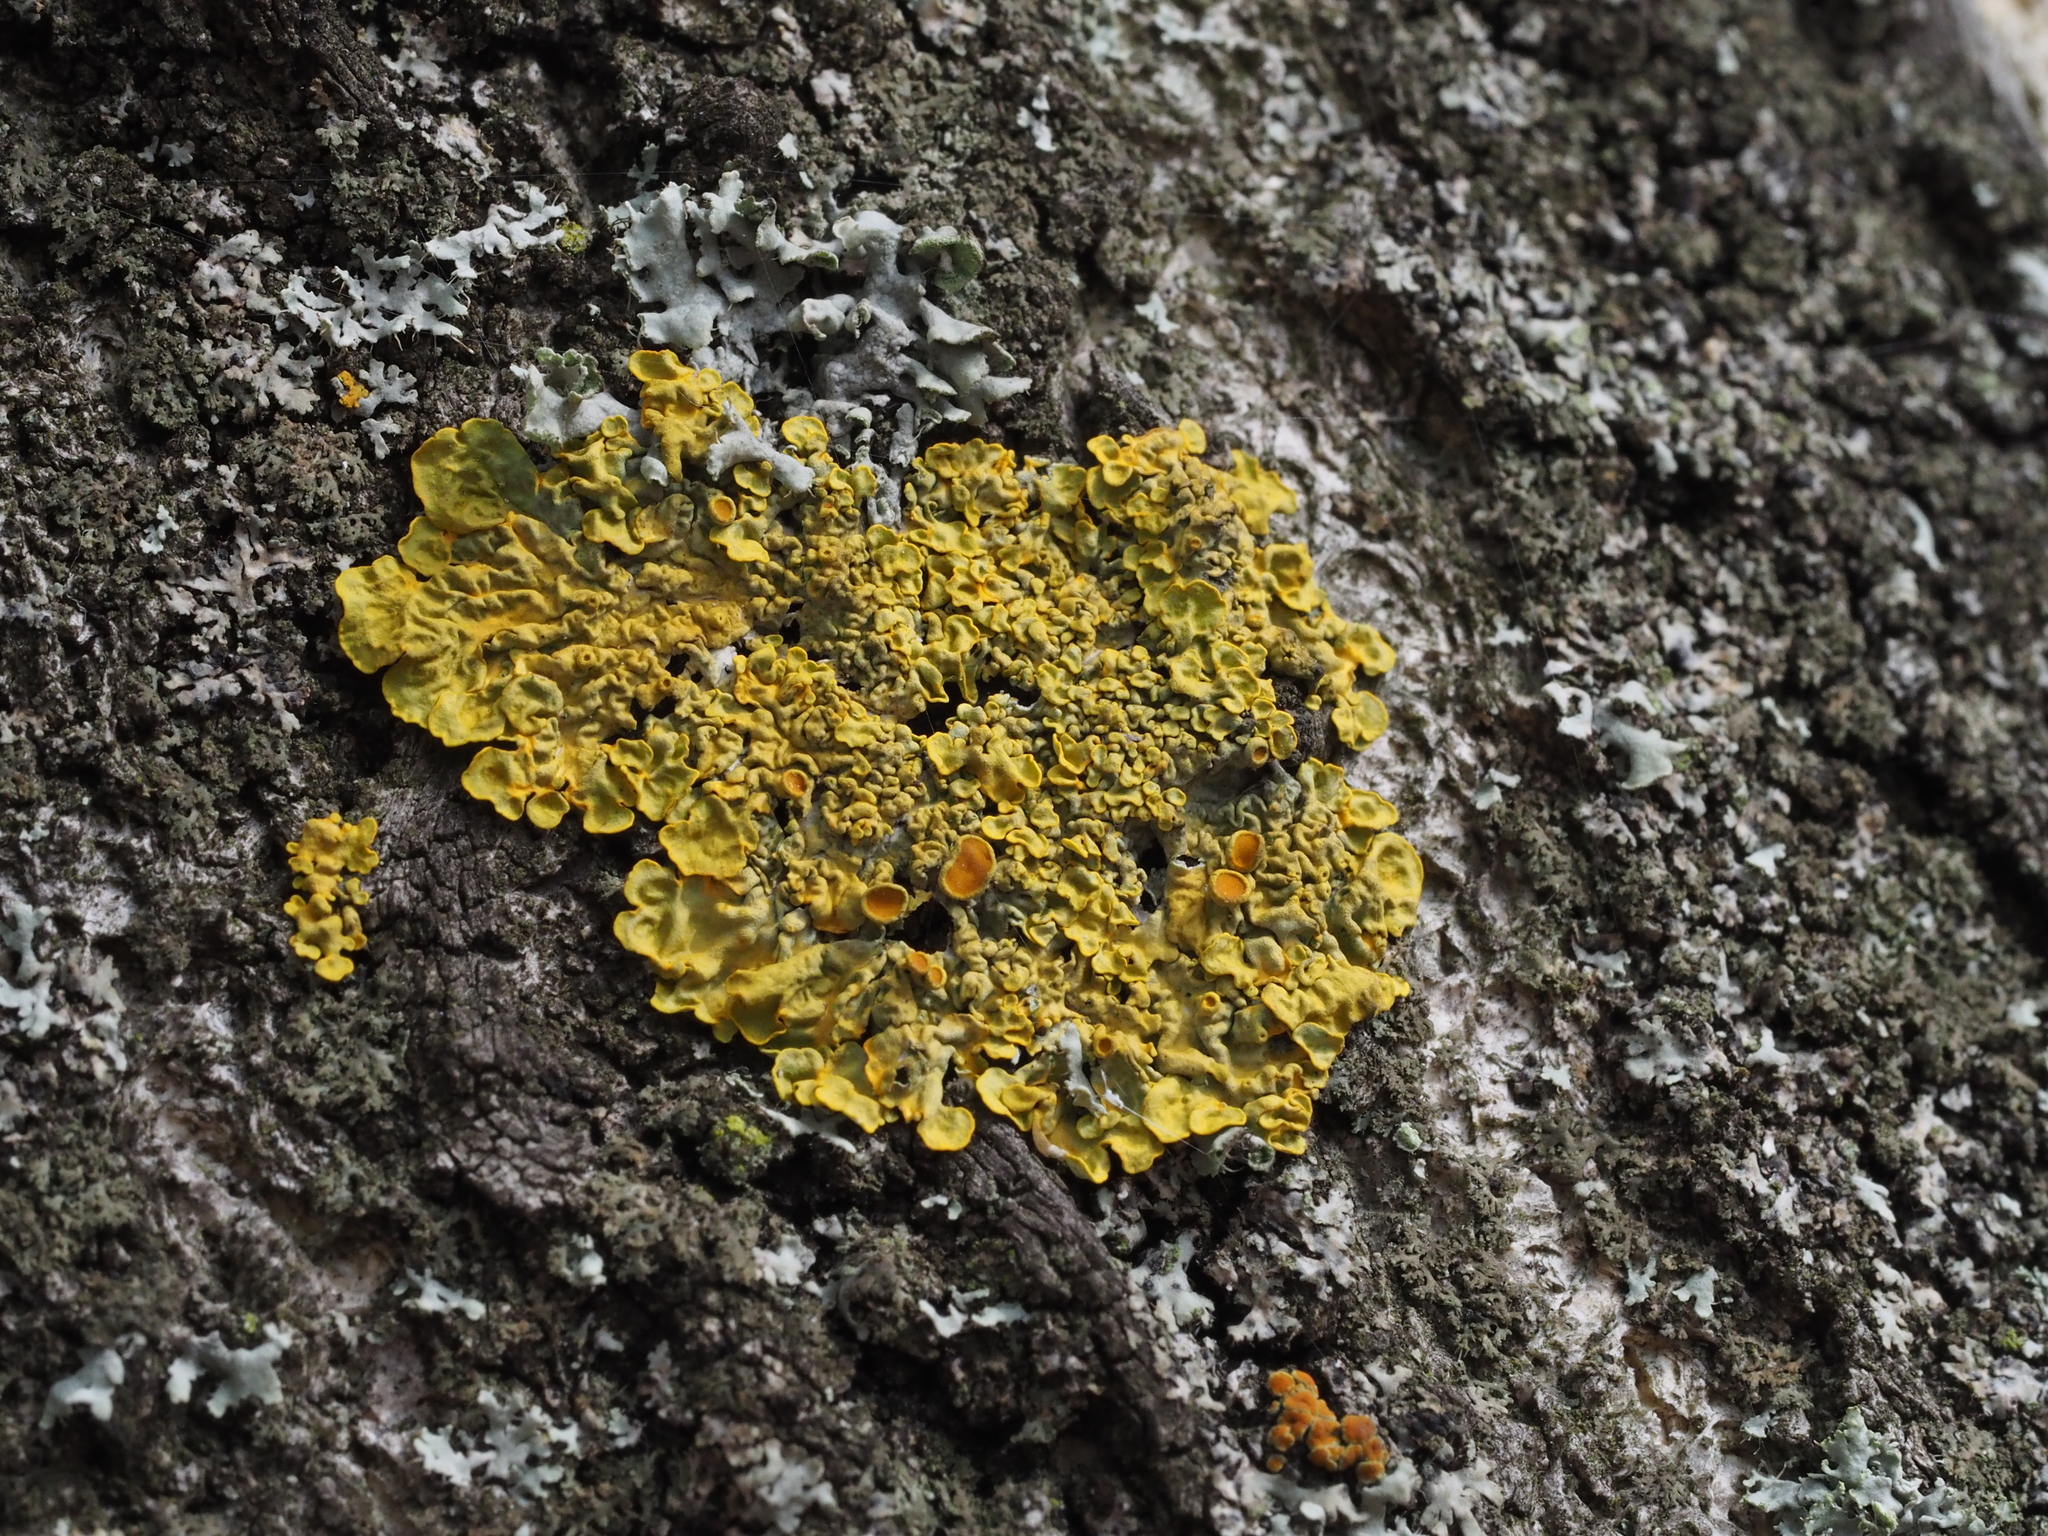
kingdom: Fungi
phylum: Ascomycota
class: Lecanoromycetes
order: Teloschistales
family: Teloschistaceae
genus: Xanthoria
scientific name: Xanthoria parietina
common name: Common orange lichen
